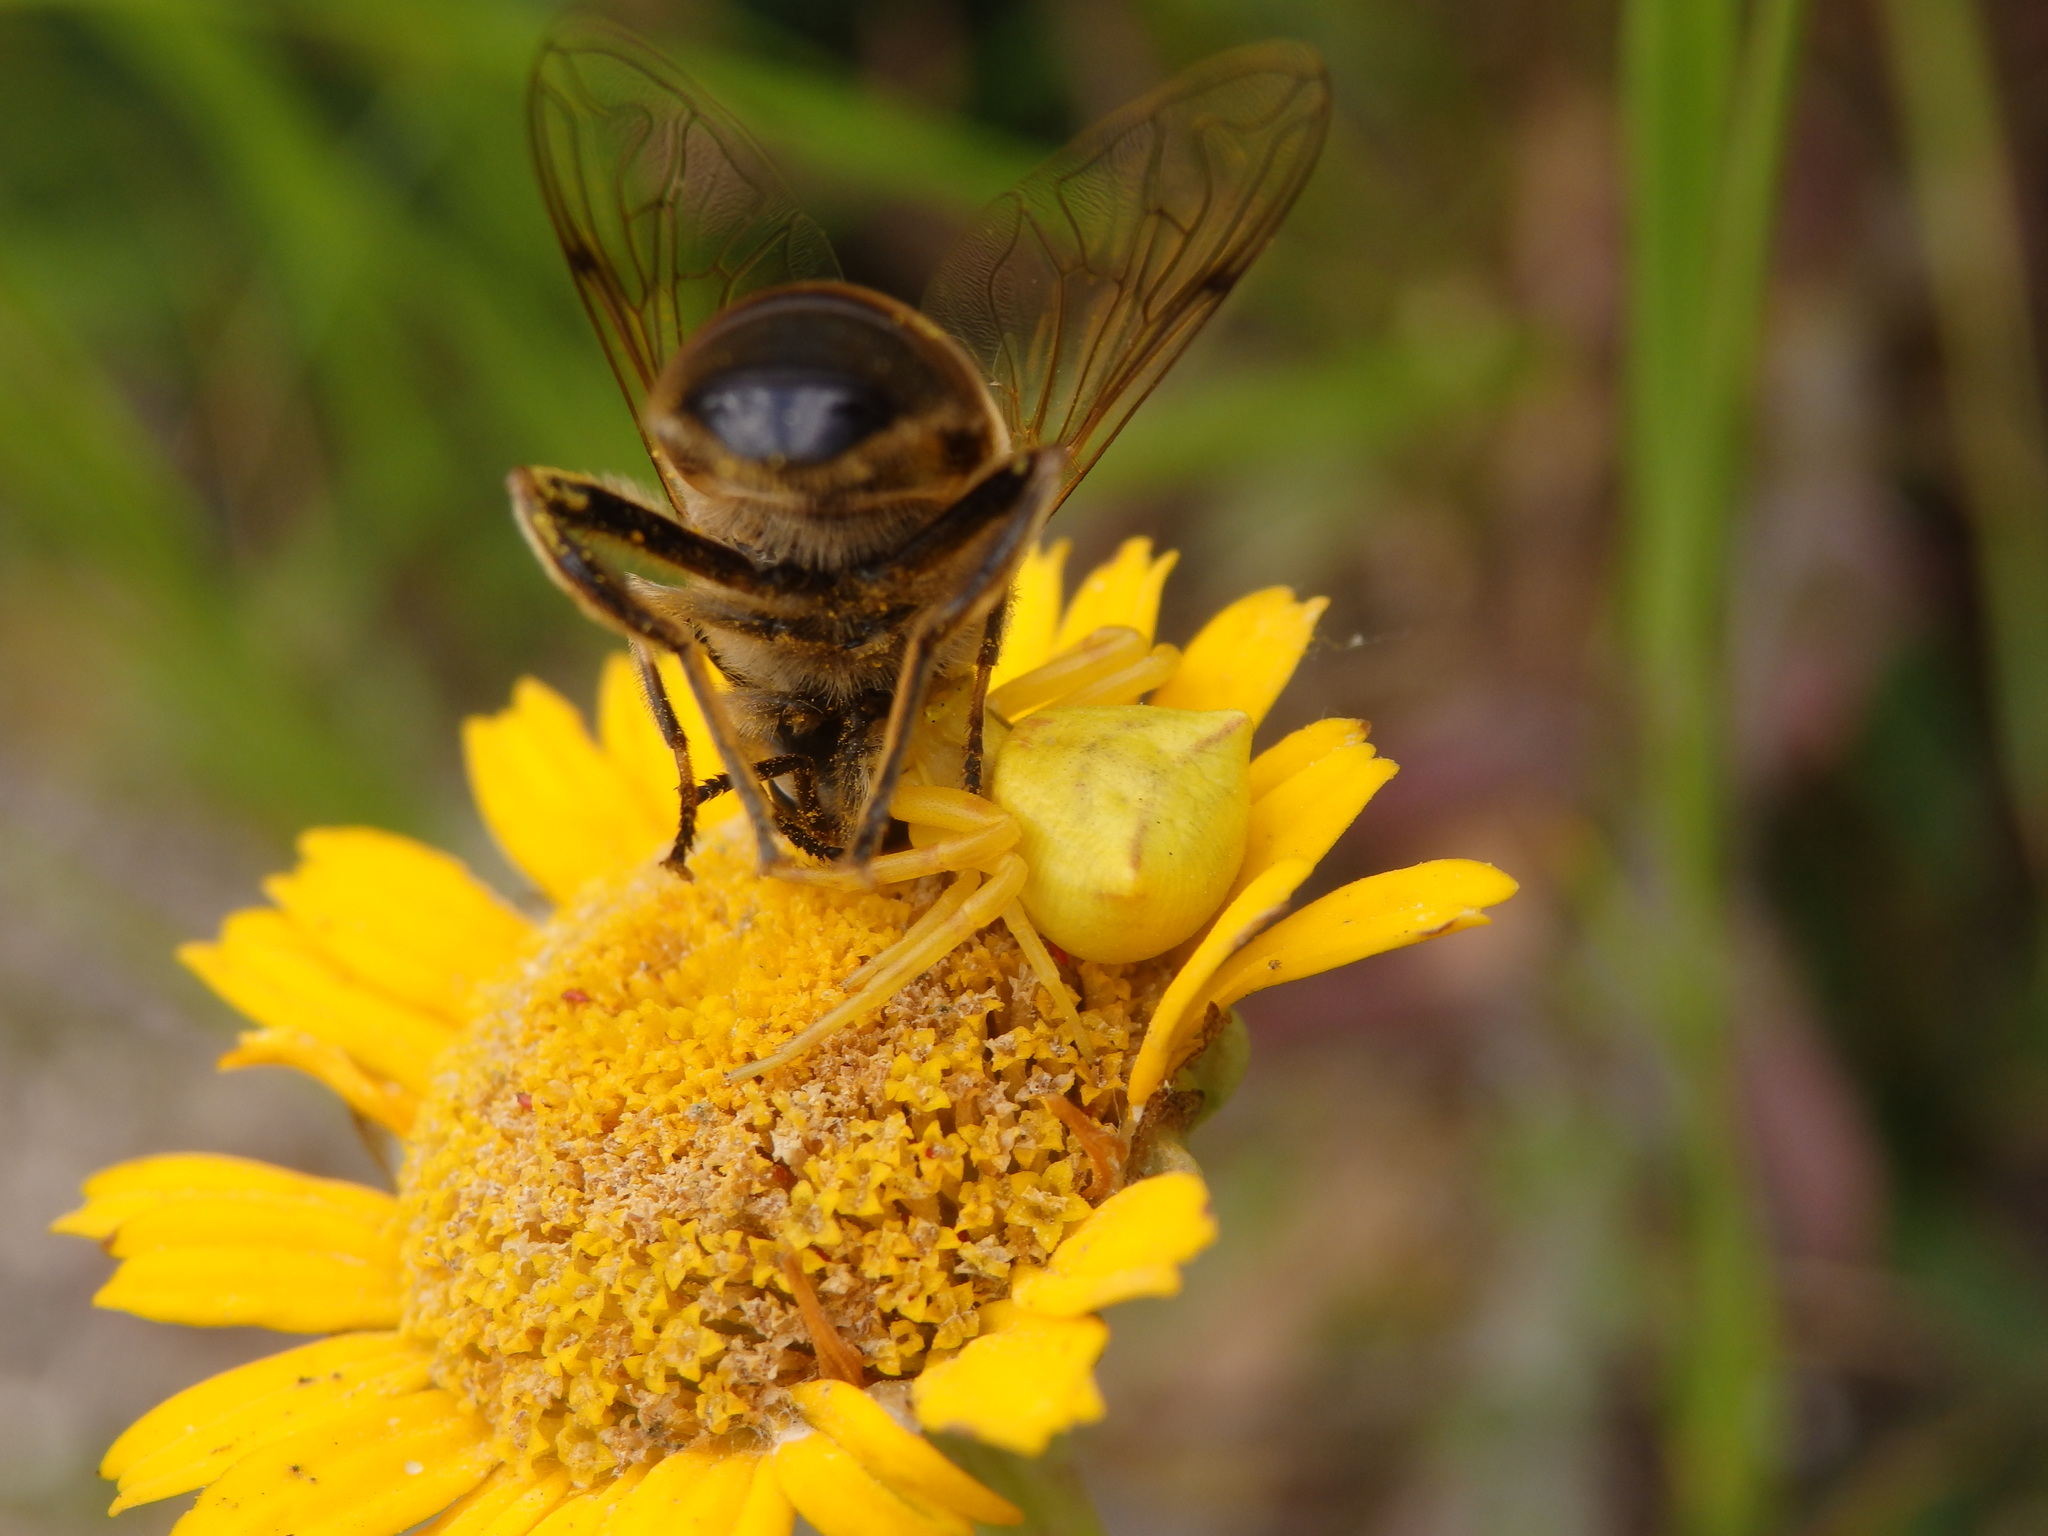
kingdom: Animalia
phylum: Arthropoda
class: Arachnida
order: Araneae
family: Thomisidae
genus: Thomisus
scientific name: Thomisus onustus
